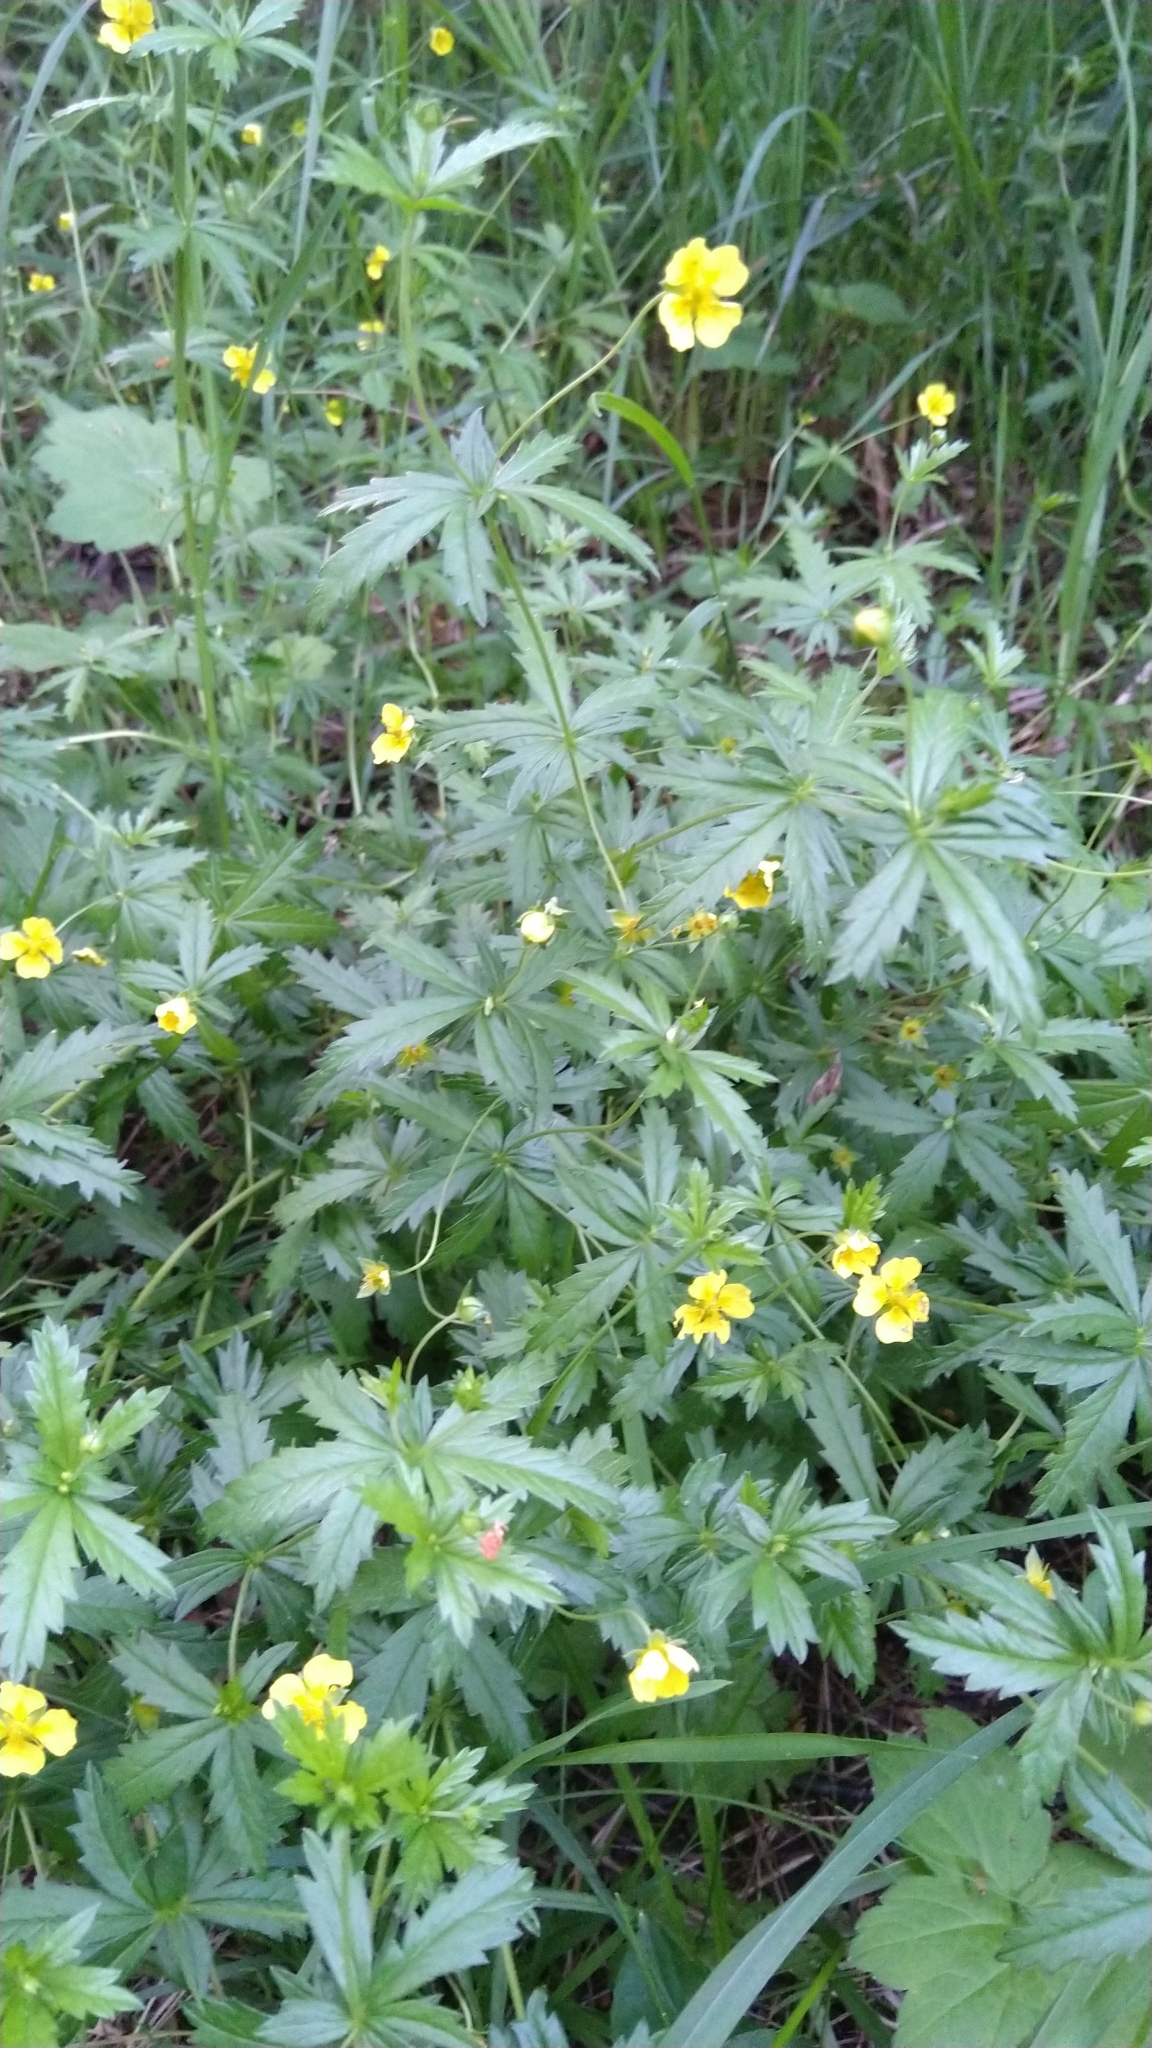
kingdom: Plantae
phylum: Tracheophyta
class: Magnoliopsida
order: Rosales
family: Rosaceae
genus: Potentilla
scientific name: Potentilla erecta
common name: Tormentil
